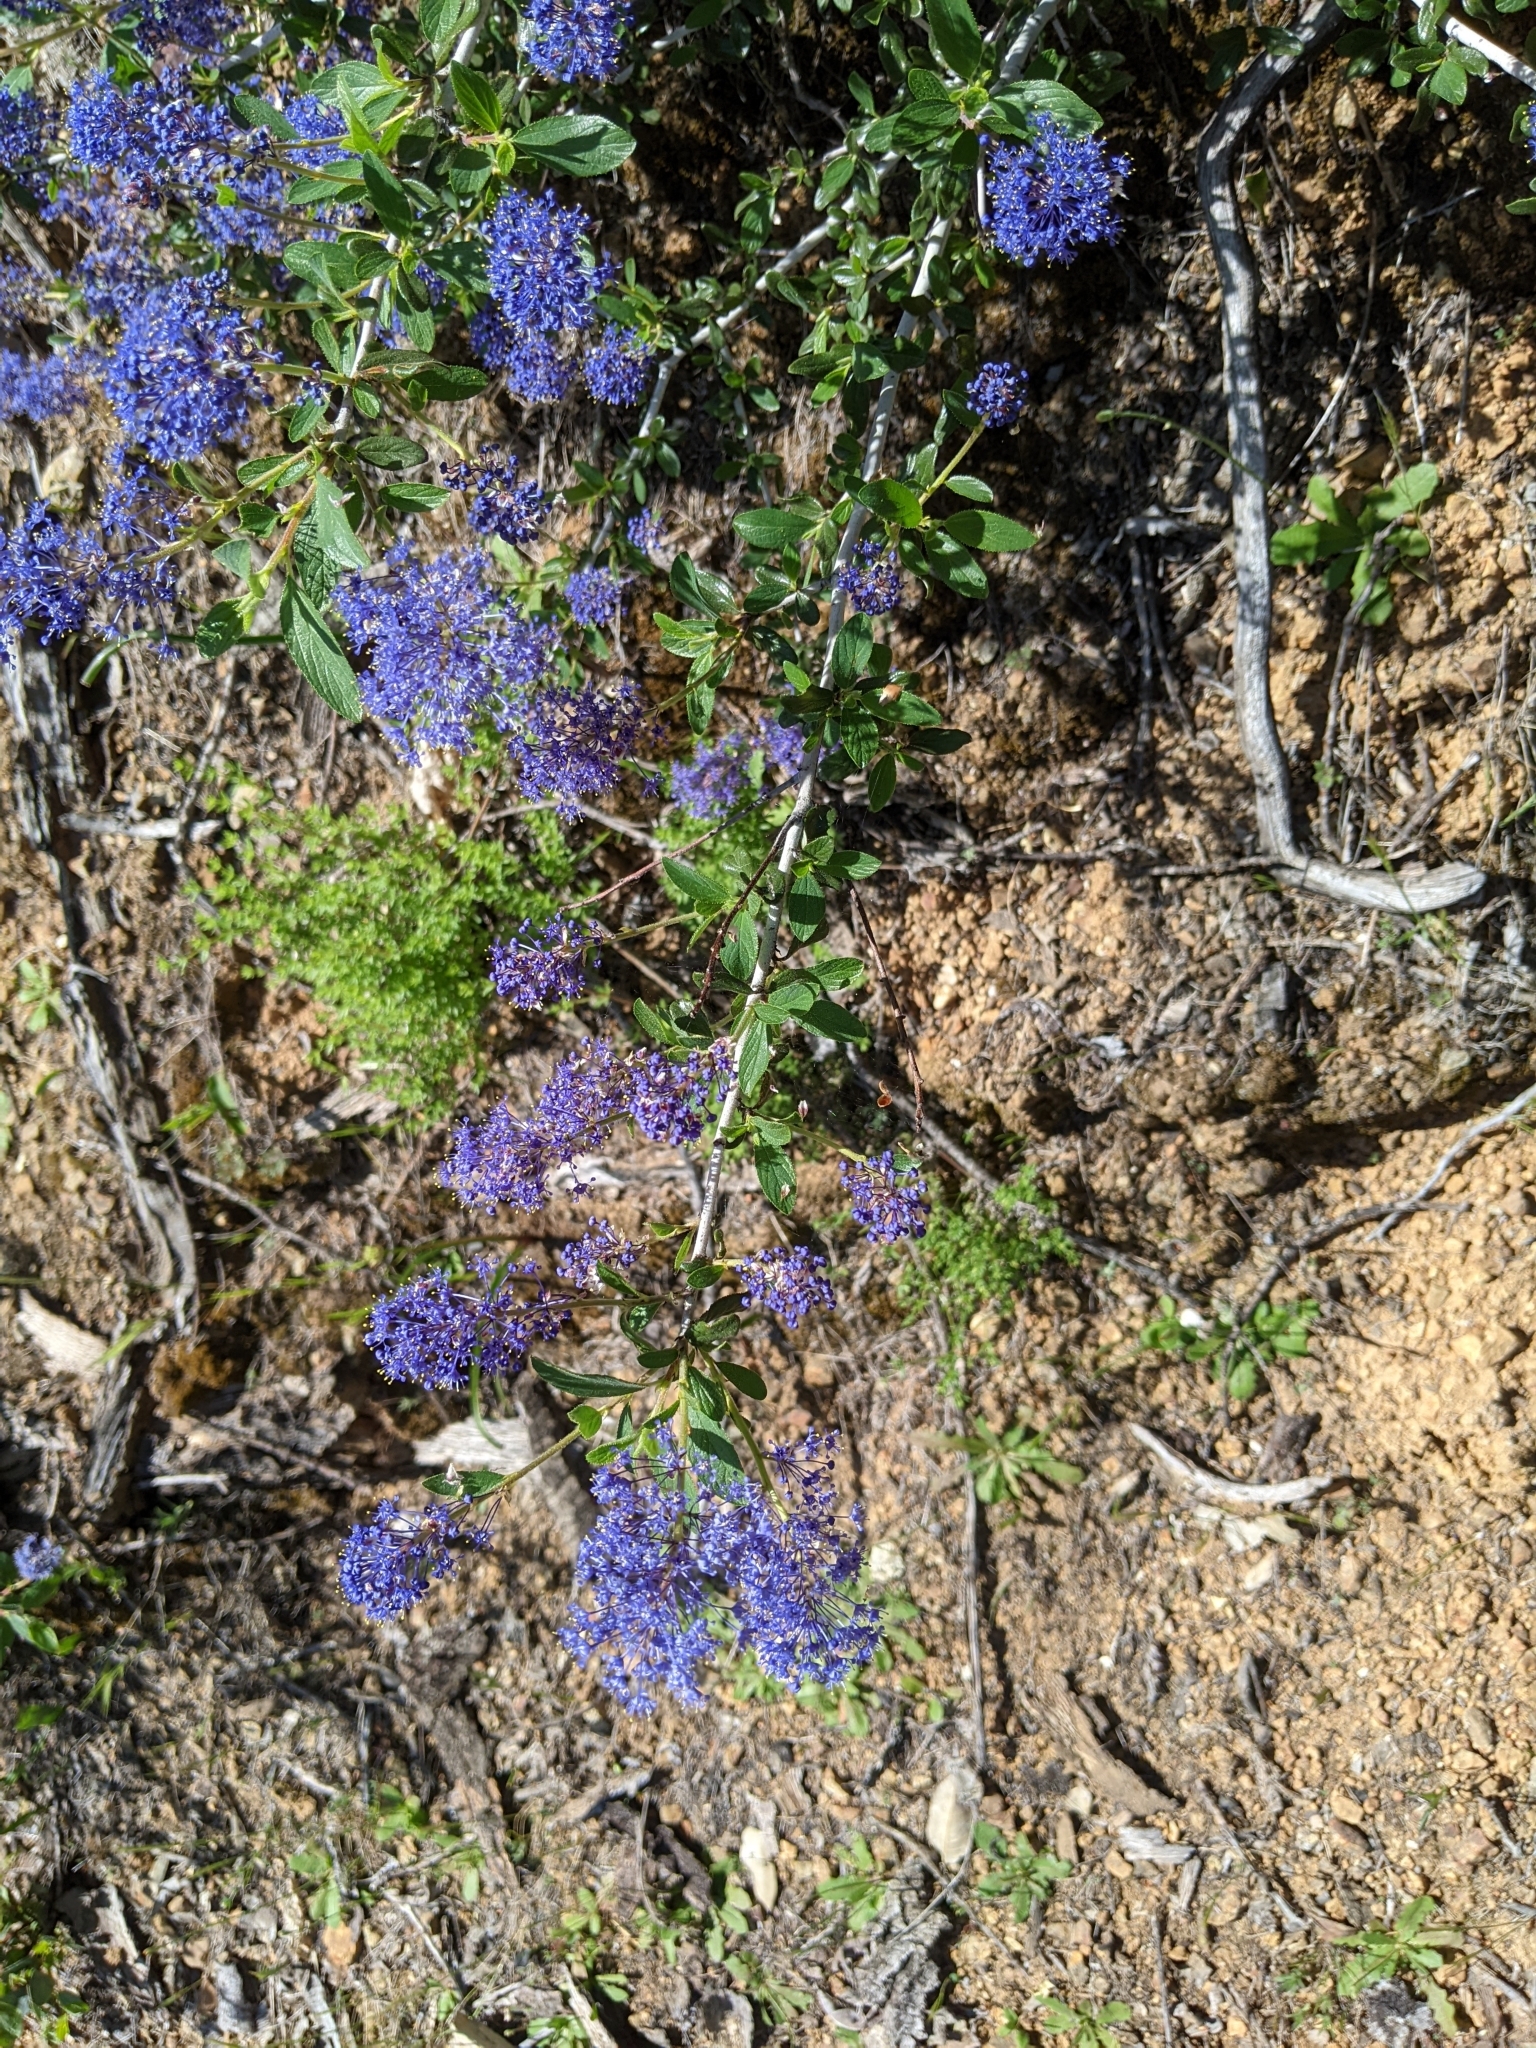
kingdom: Plantae
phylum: Tracheophyta
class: Magnoliopsida
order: Rosales
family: Rhamnaceae
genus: Ceanothus
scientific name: Ceanothus lemmonii
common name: Lemmon's ceanothus
